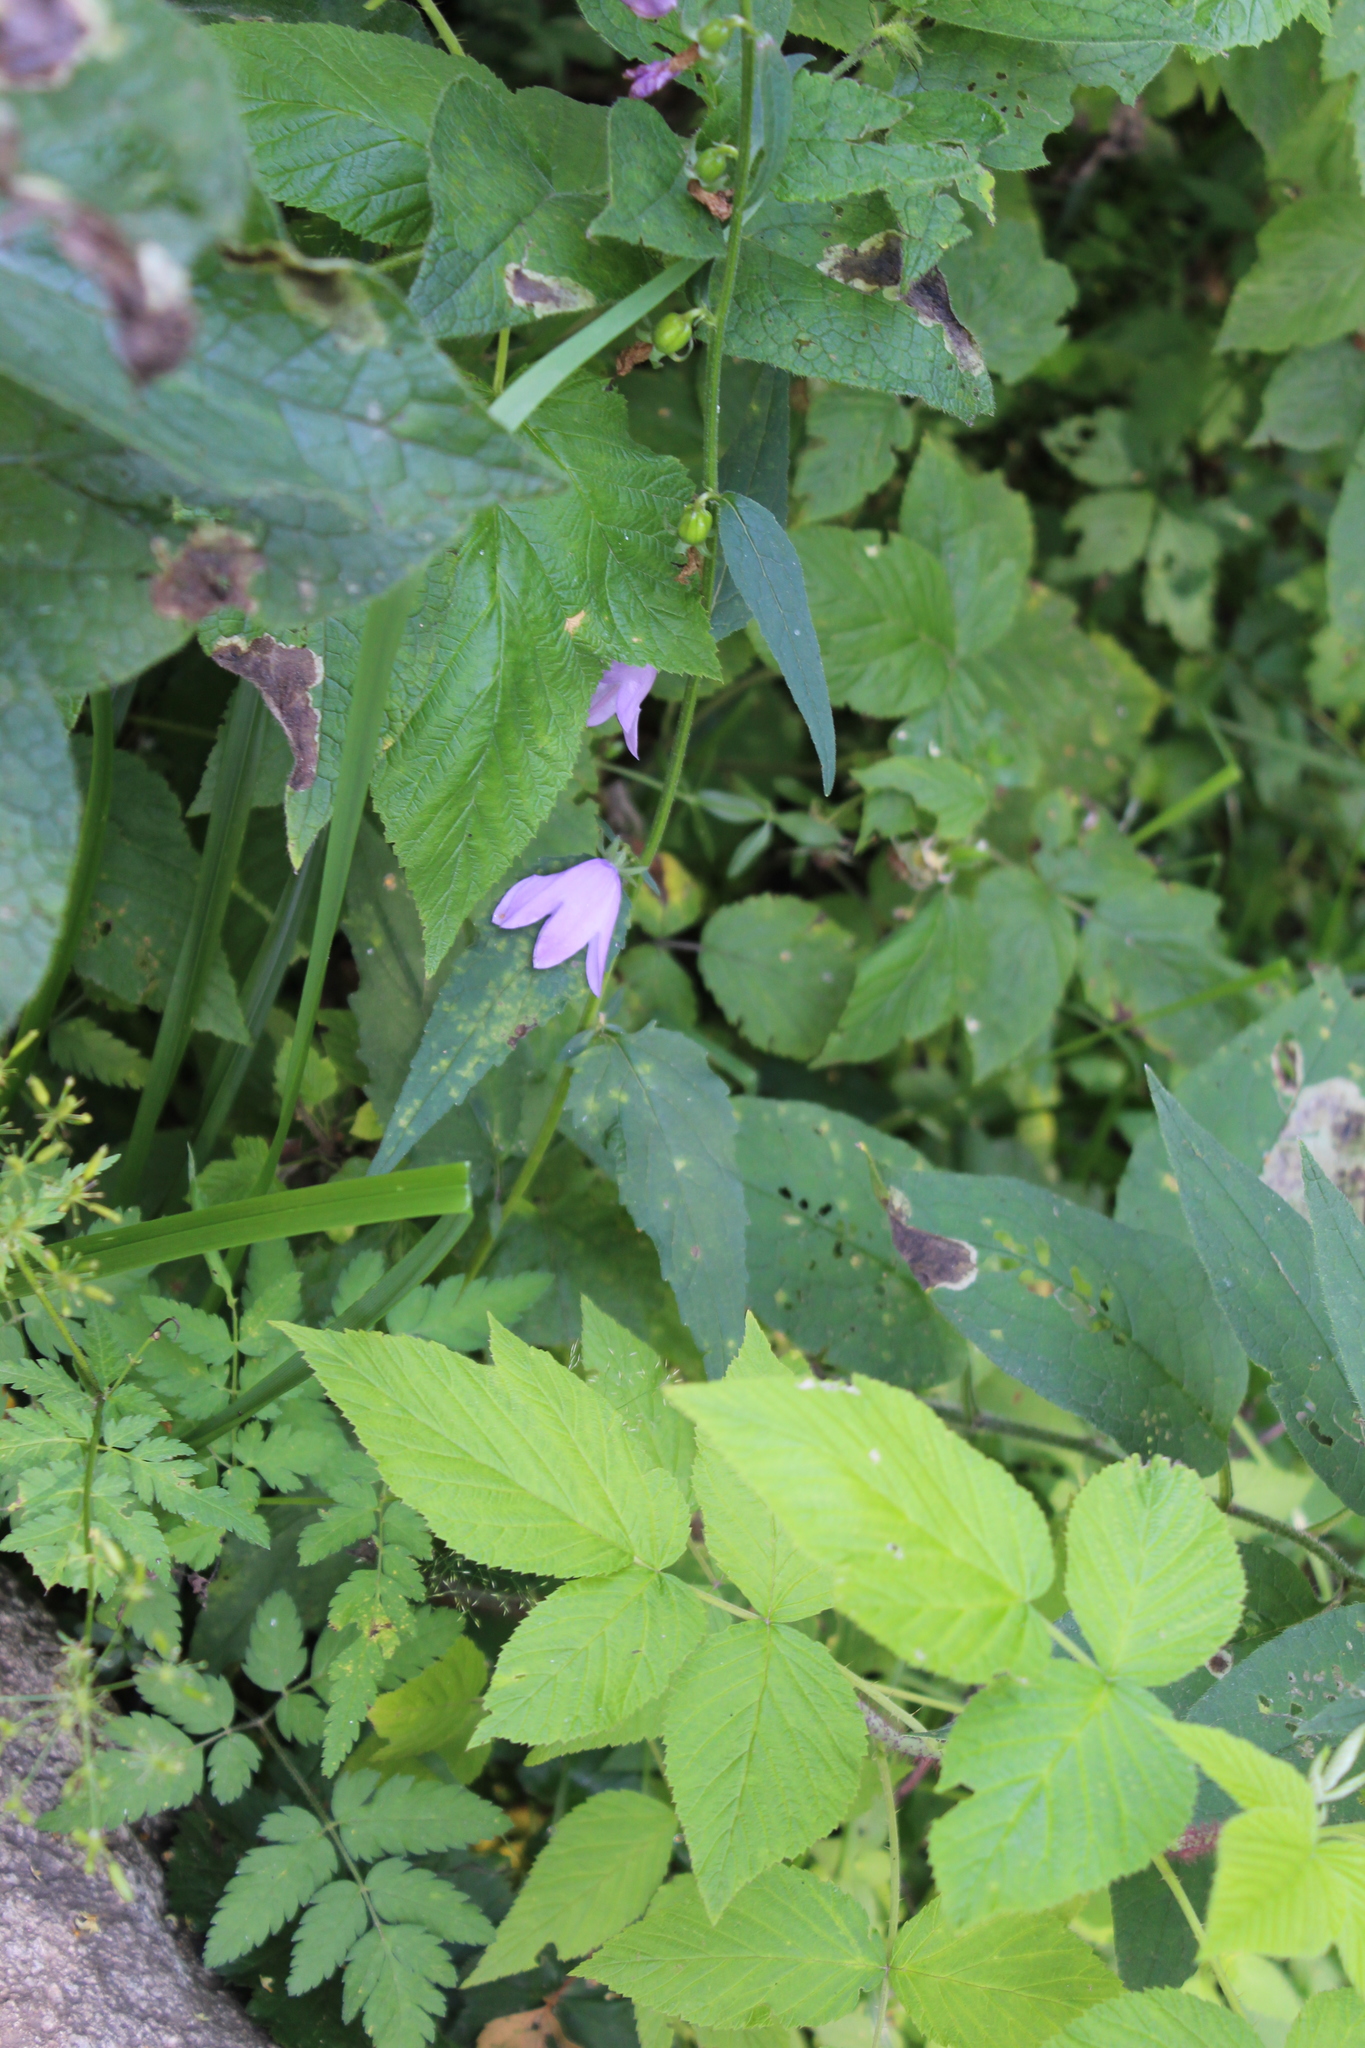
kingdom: Plantae
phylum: Tracheophyta
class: Magnoliopsida
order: Asterales
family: Campanulaceae
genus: Campanula
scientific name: Campanula rapunculoides
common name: Creeping bellflower
